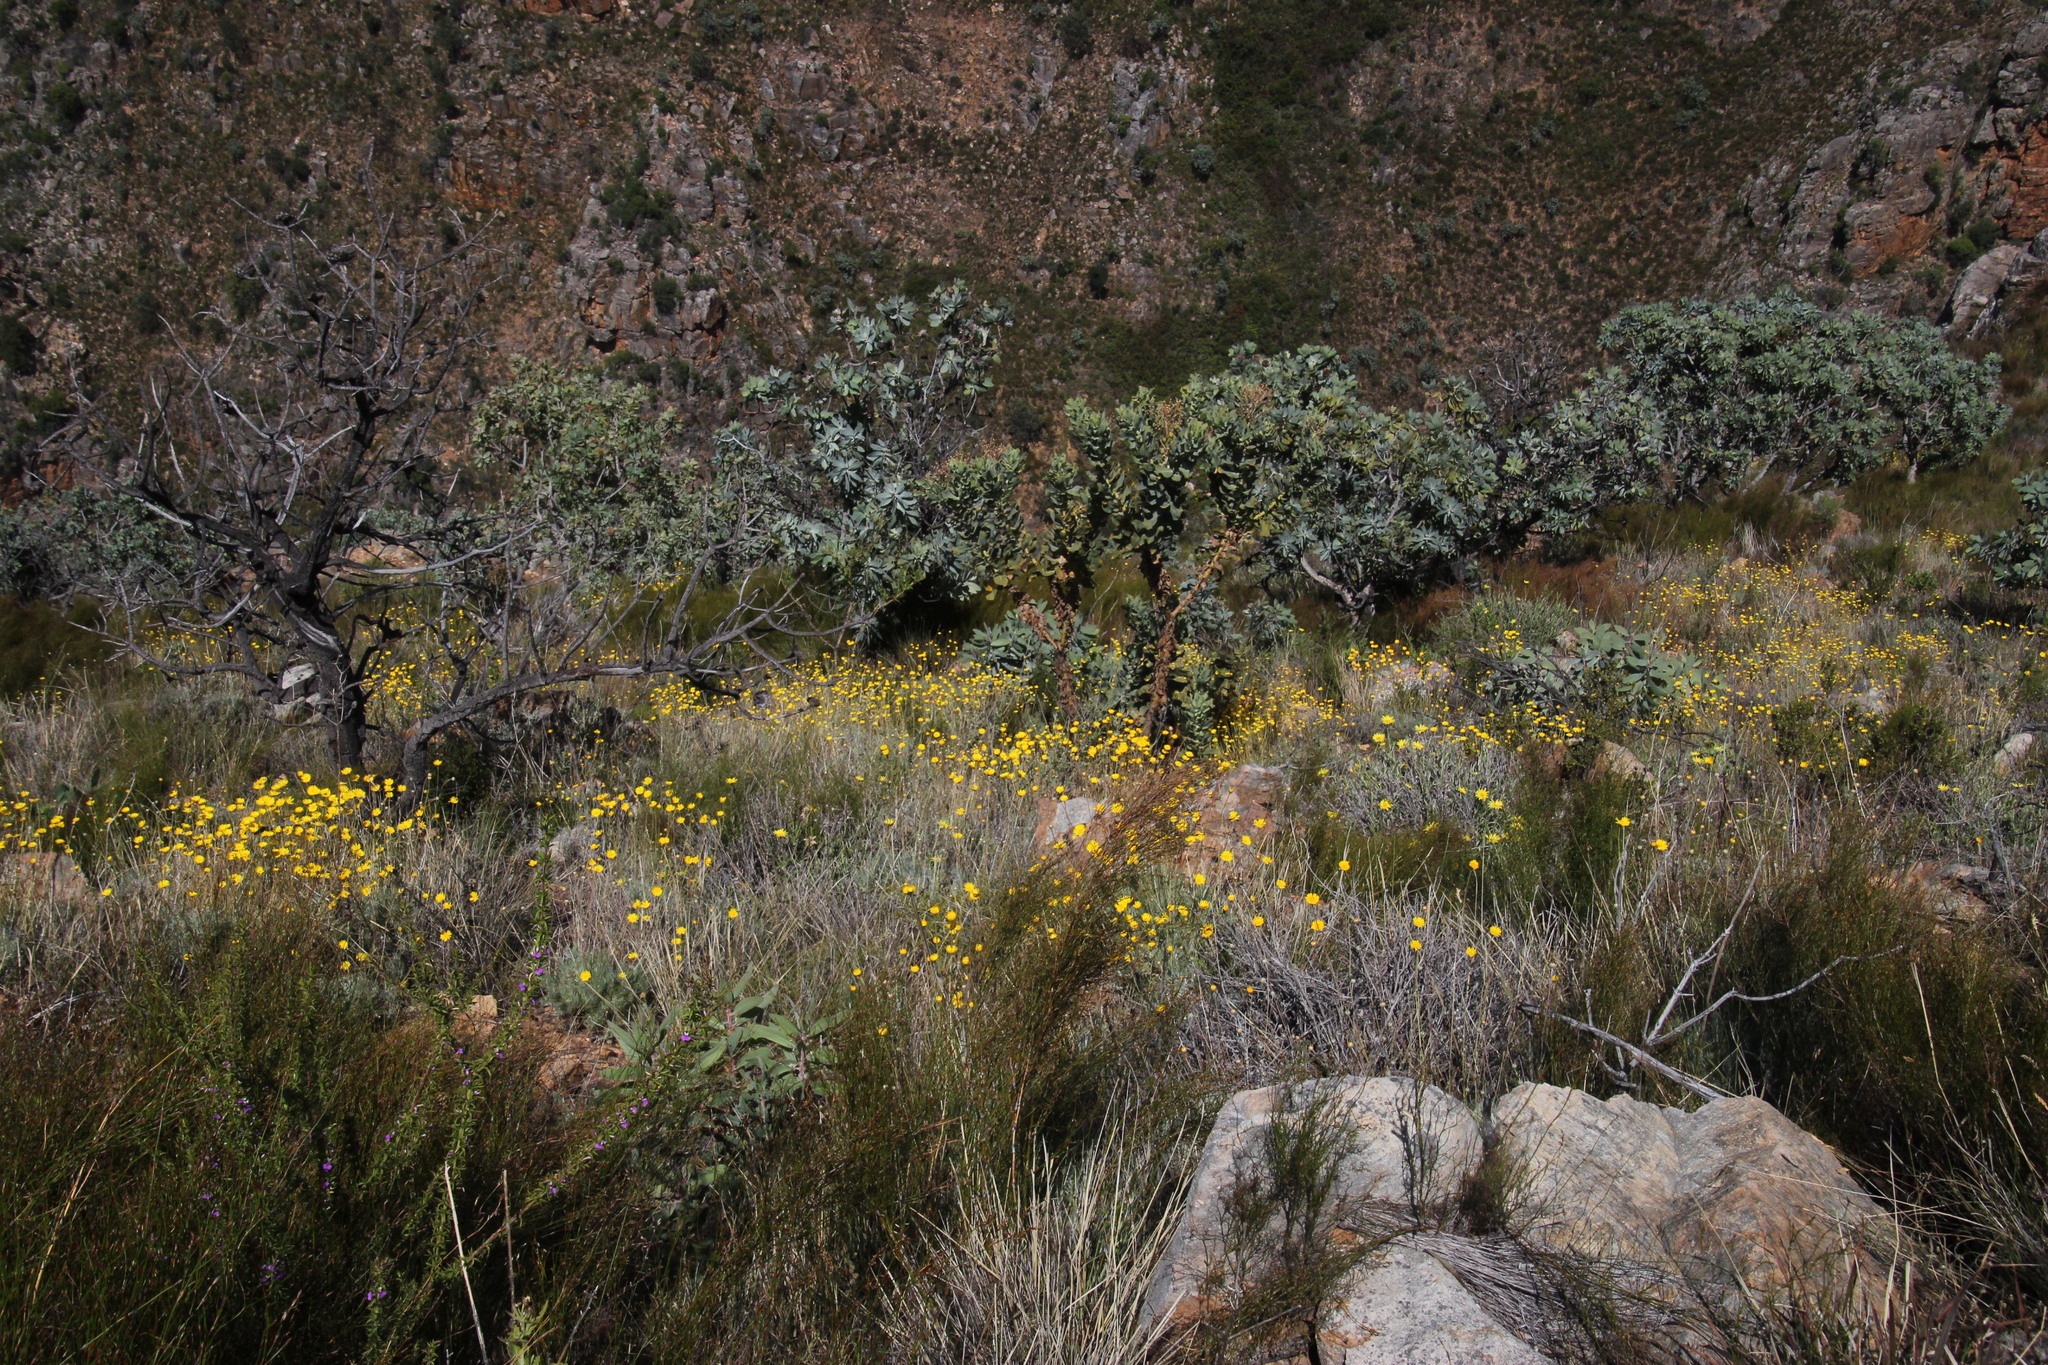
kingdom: Plantae
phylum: Tracheophyta
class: Magnoliopsida
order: Proteales
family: Proteaceae
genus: Protea
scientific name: Protea nitida
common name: Tree protea
